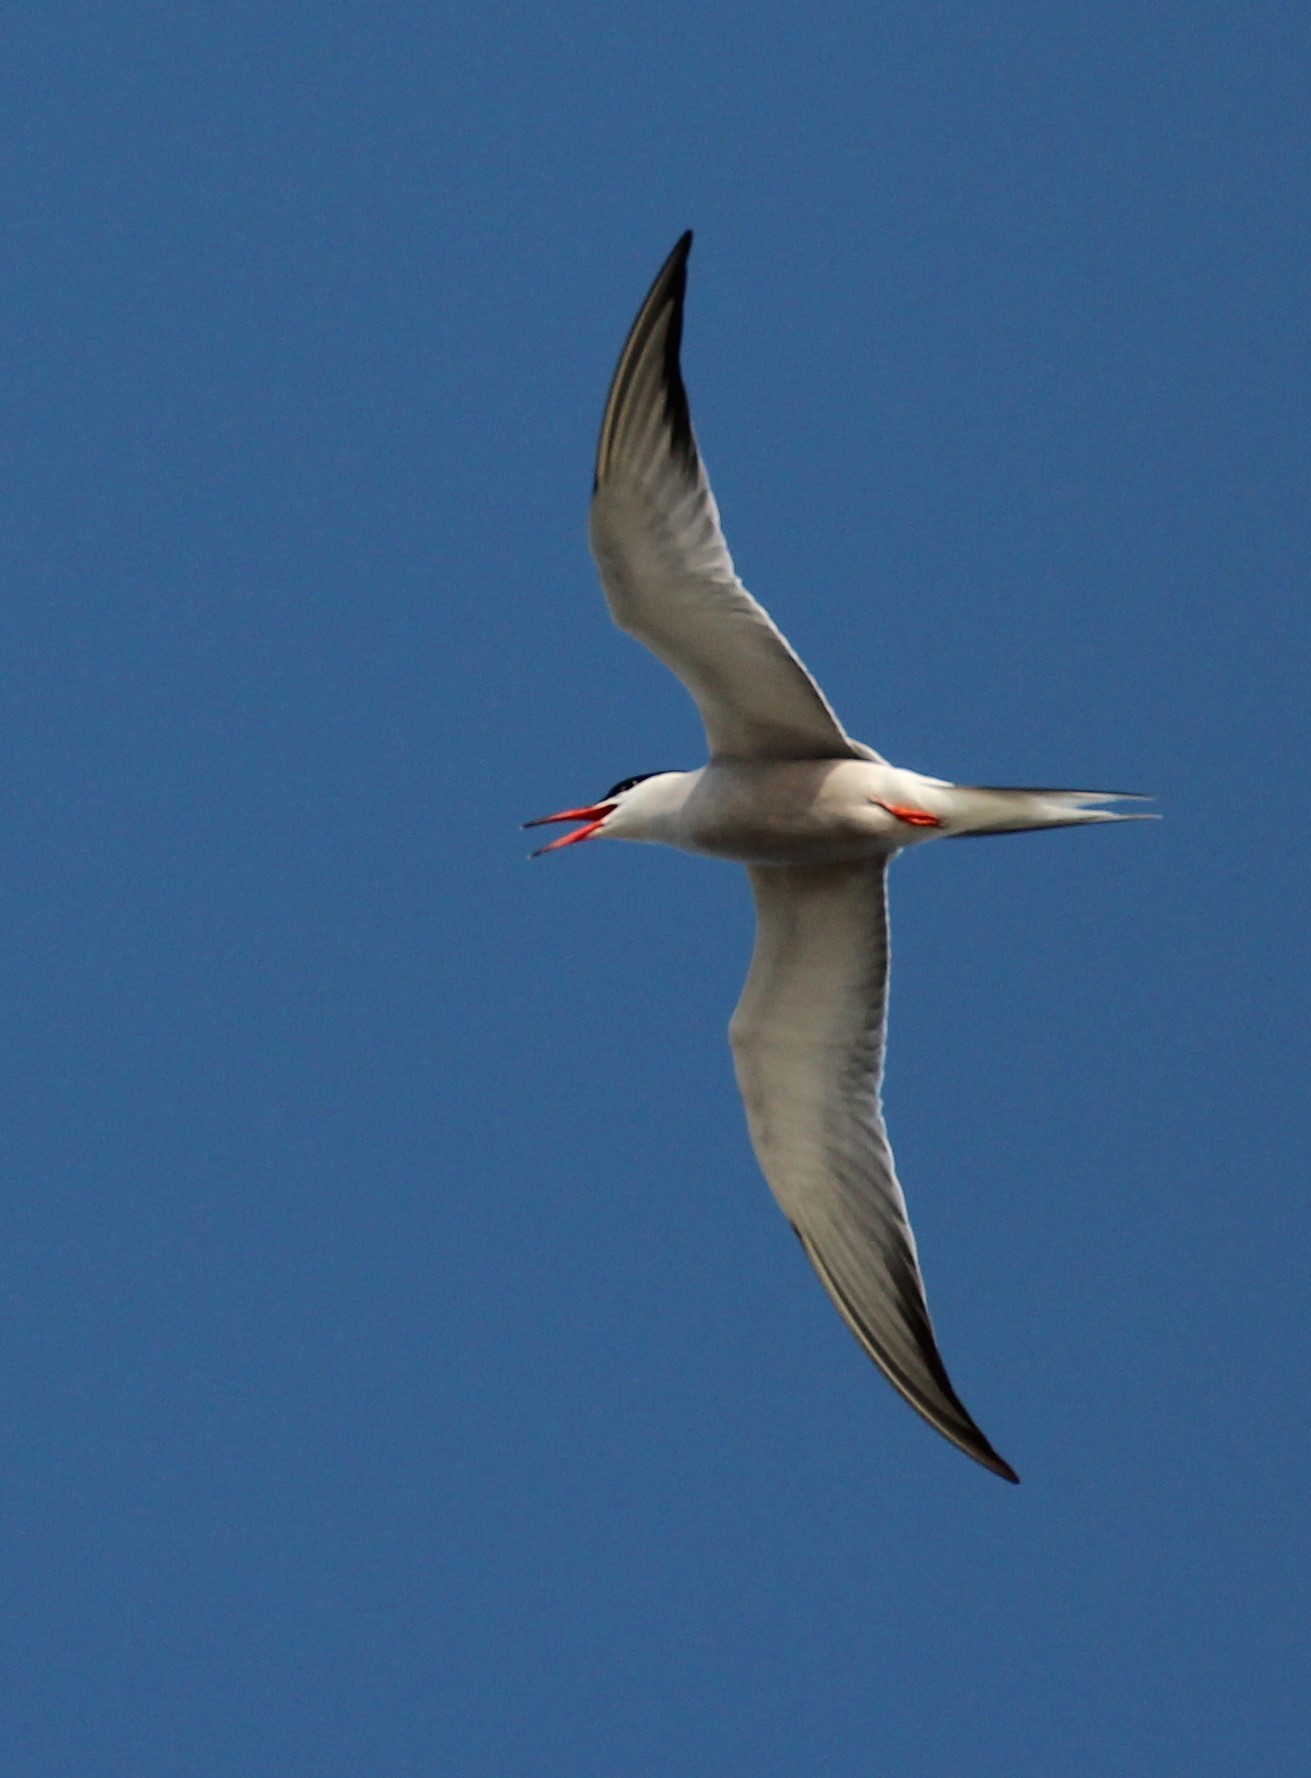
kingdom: Animalia
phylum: Chordata
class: Aves
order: Charadriiformes
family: Laridae
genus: Sterna
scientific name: Sterna hirundo
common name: Common tern
